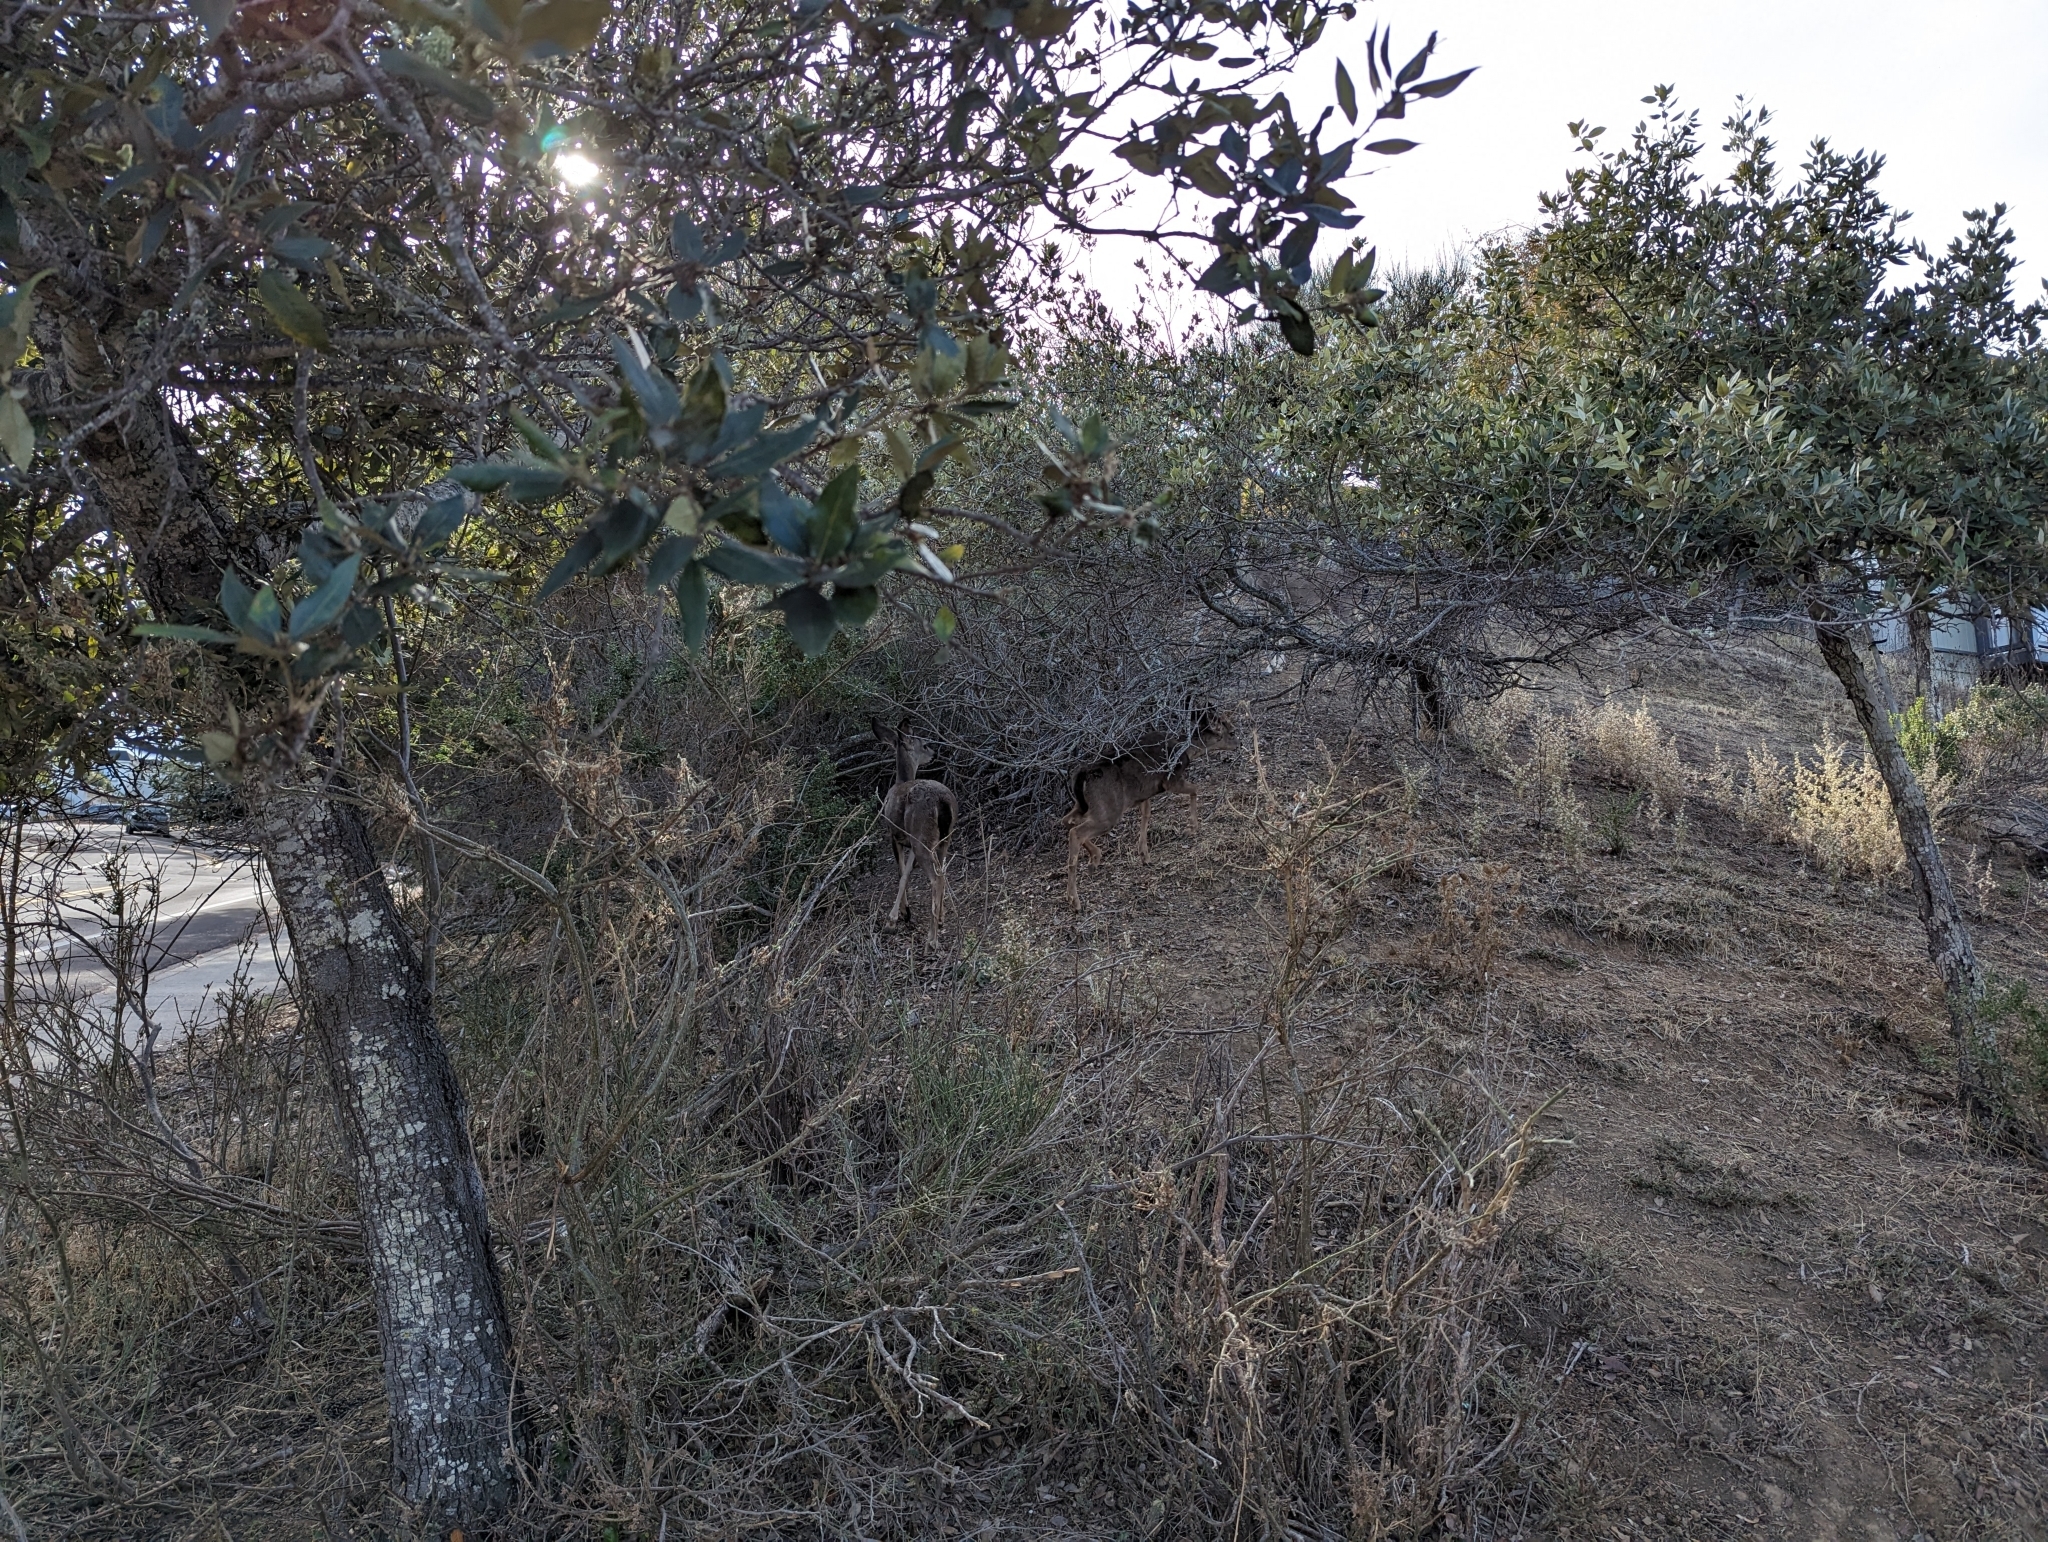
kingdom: Animalia
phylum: Chordata
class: Mammalia
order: Artiodactyla
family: Cervidae
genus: Odocoileus
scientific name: Odocoileus hemionus
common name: Mule deer
